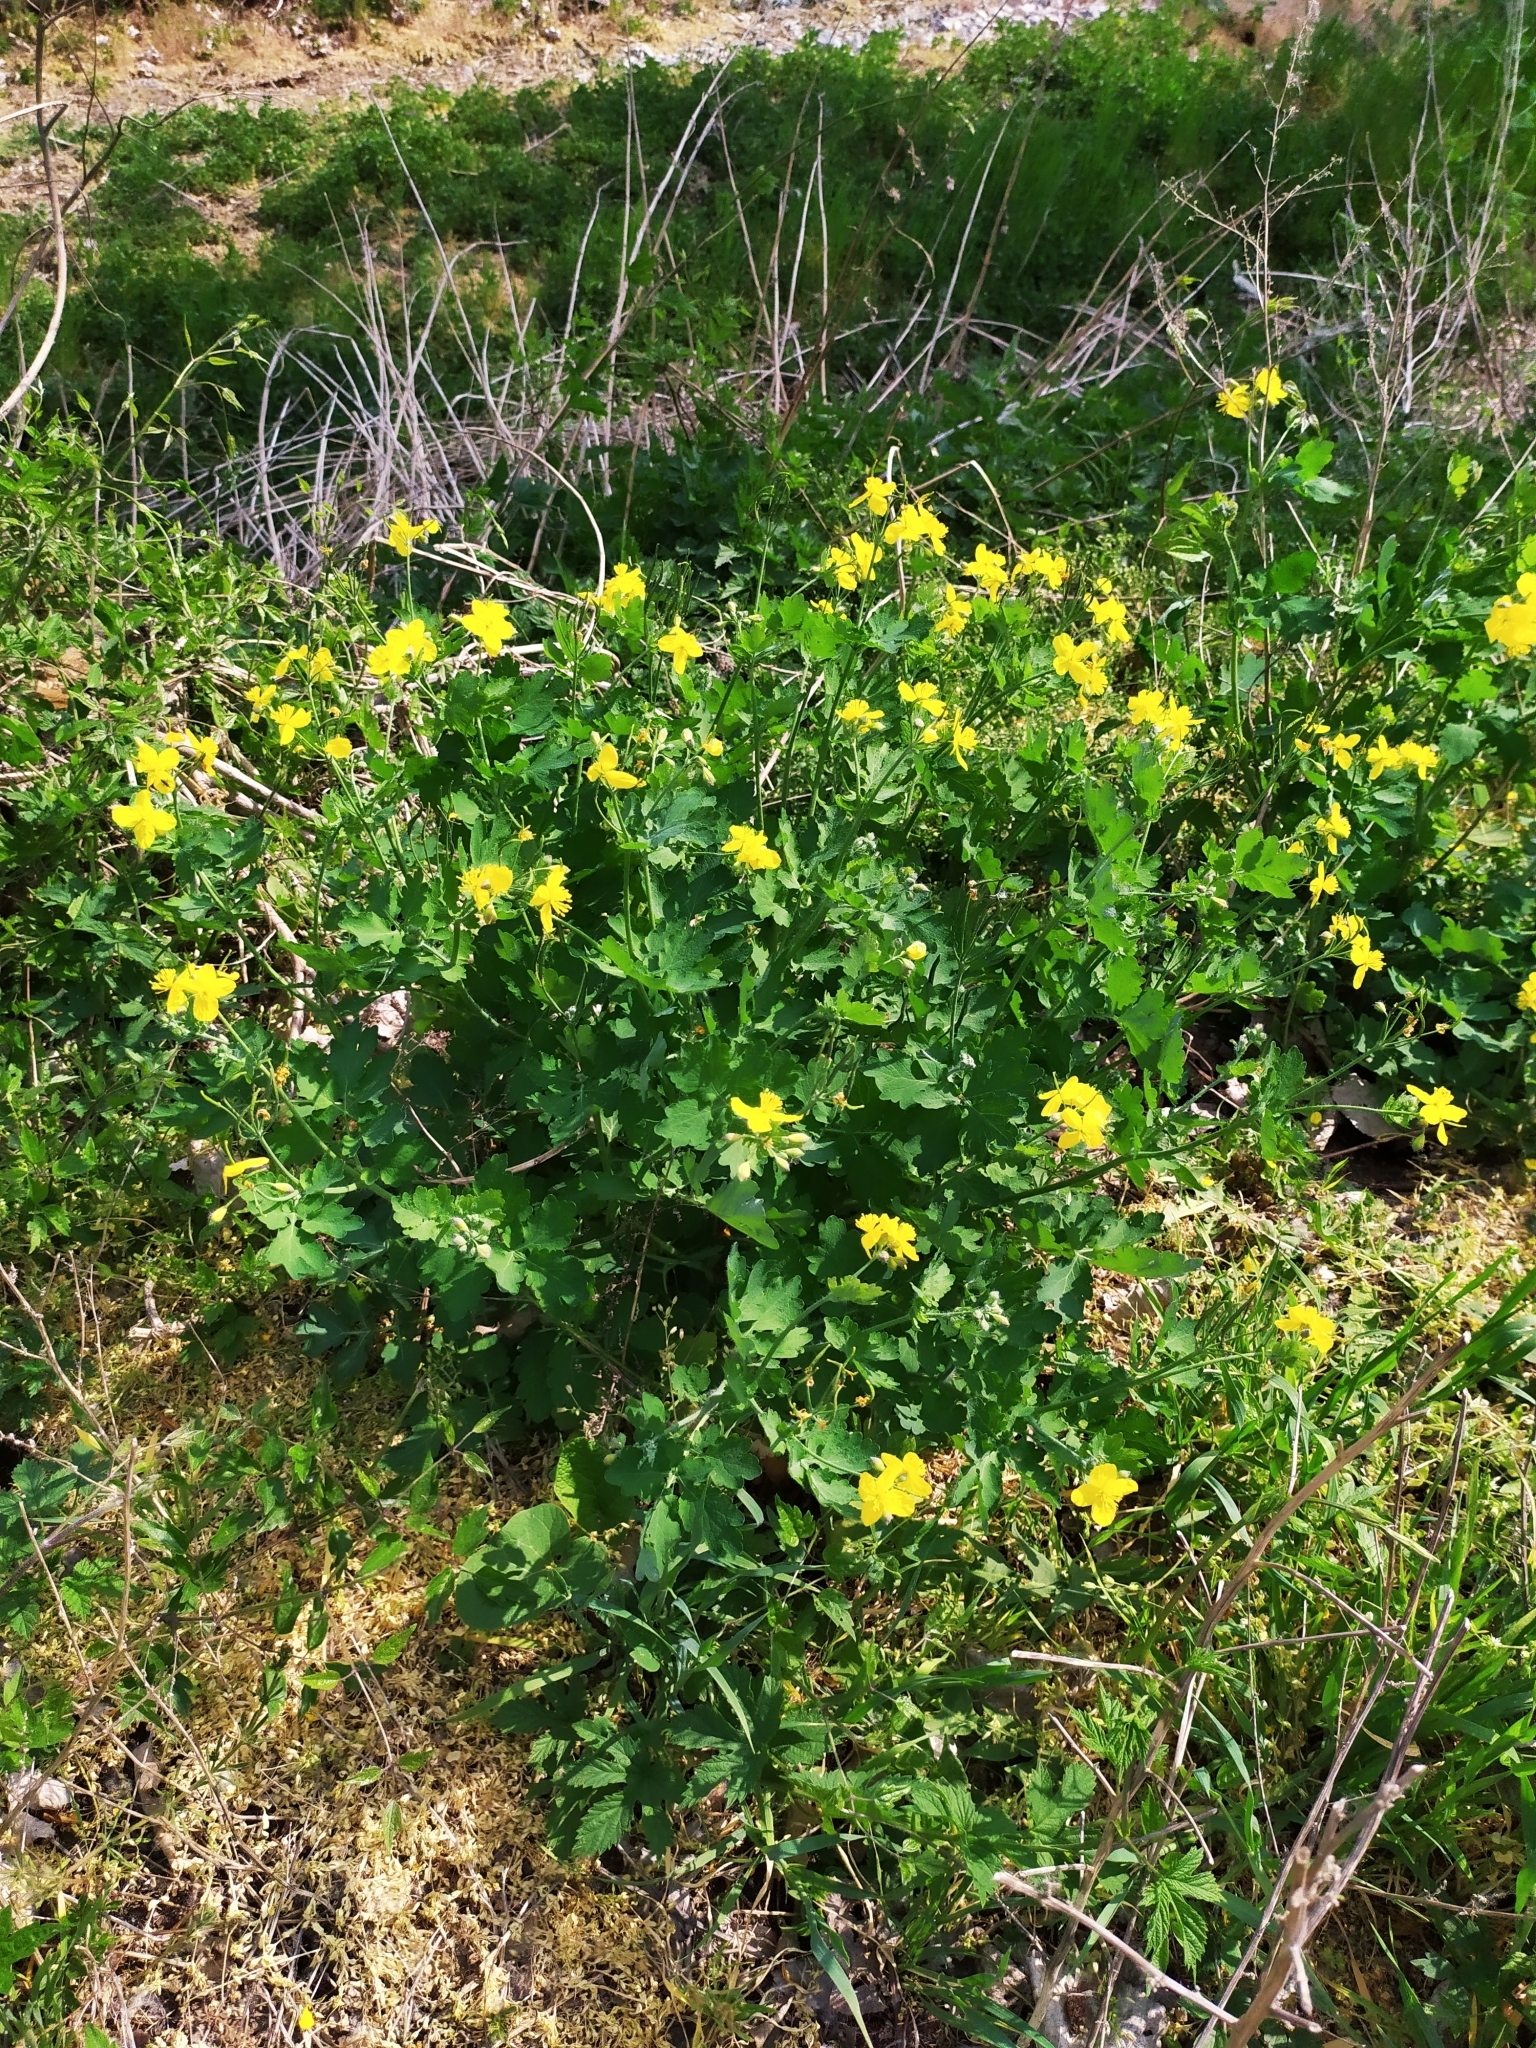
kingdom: Plantae
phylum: Tracheophyta
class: Magnoliopsida
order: Ranunculales
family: Papaveraceae
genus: Chelidonium
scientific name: Chelidonium majus
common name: Greater celandine
